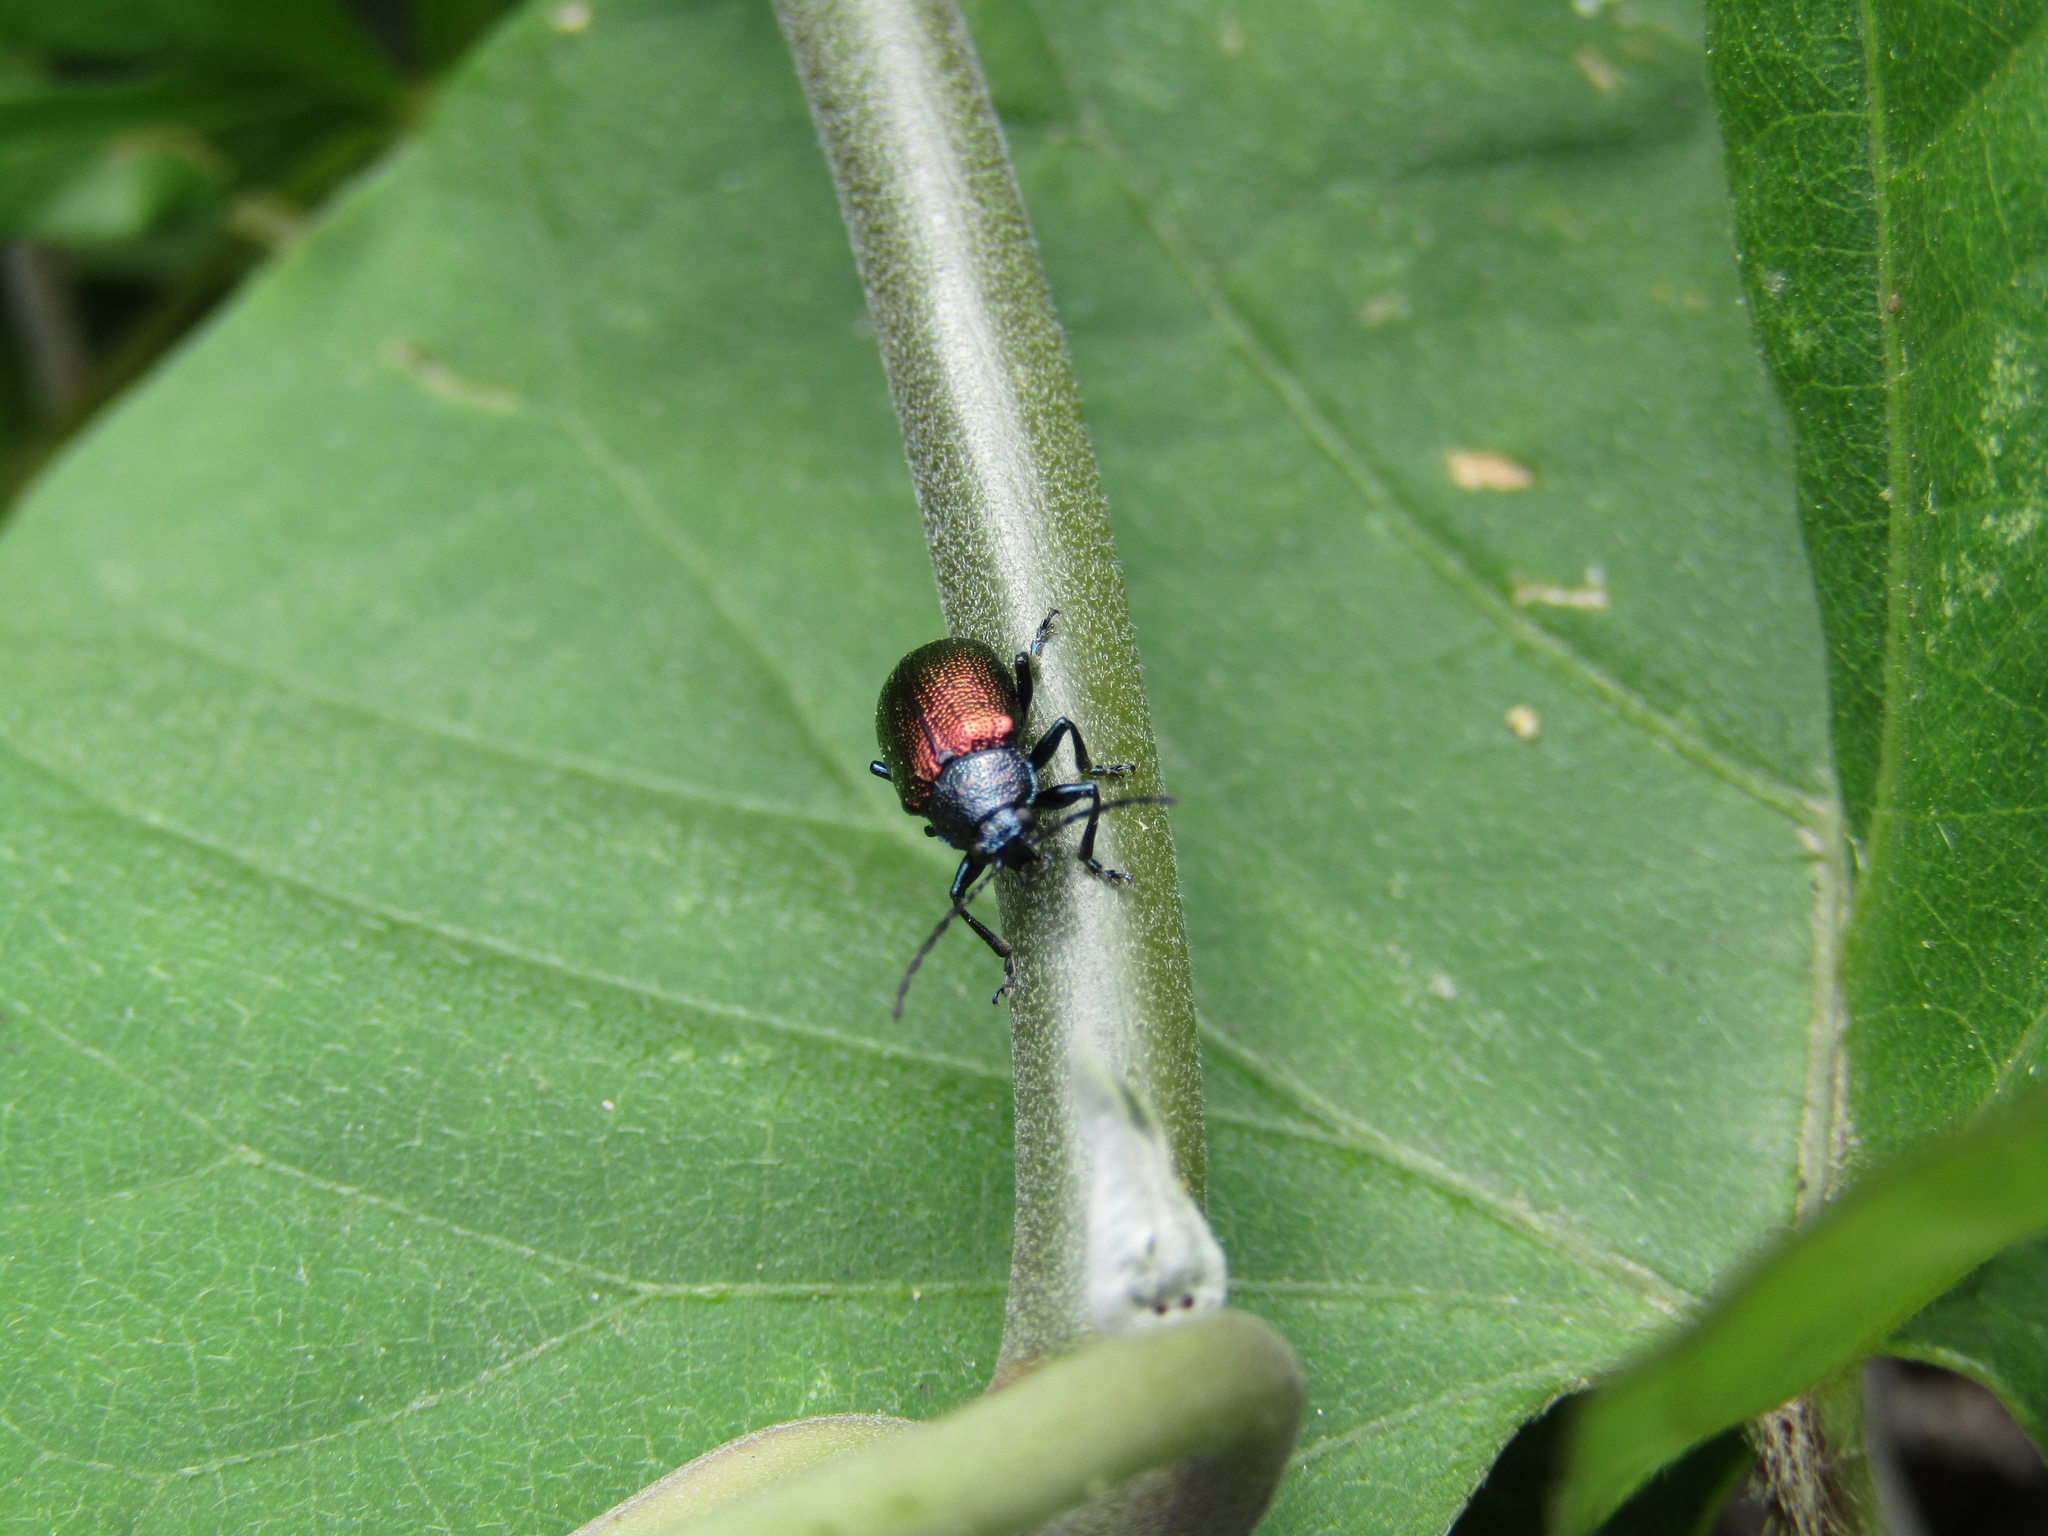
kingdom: Animalia
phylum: Arthropoda
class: Insecta
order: Coleoptera
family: Chrysomelidae
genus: Freudeita
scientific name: Freudeita
